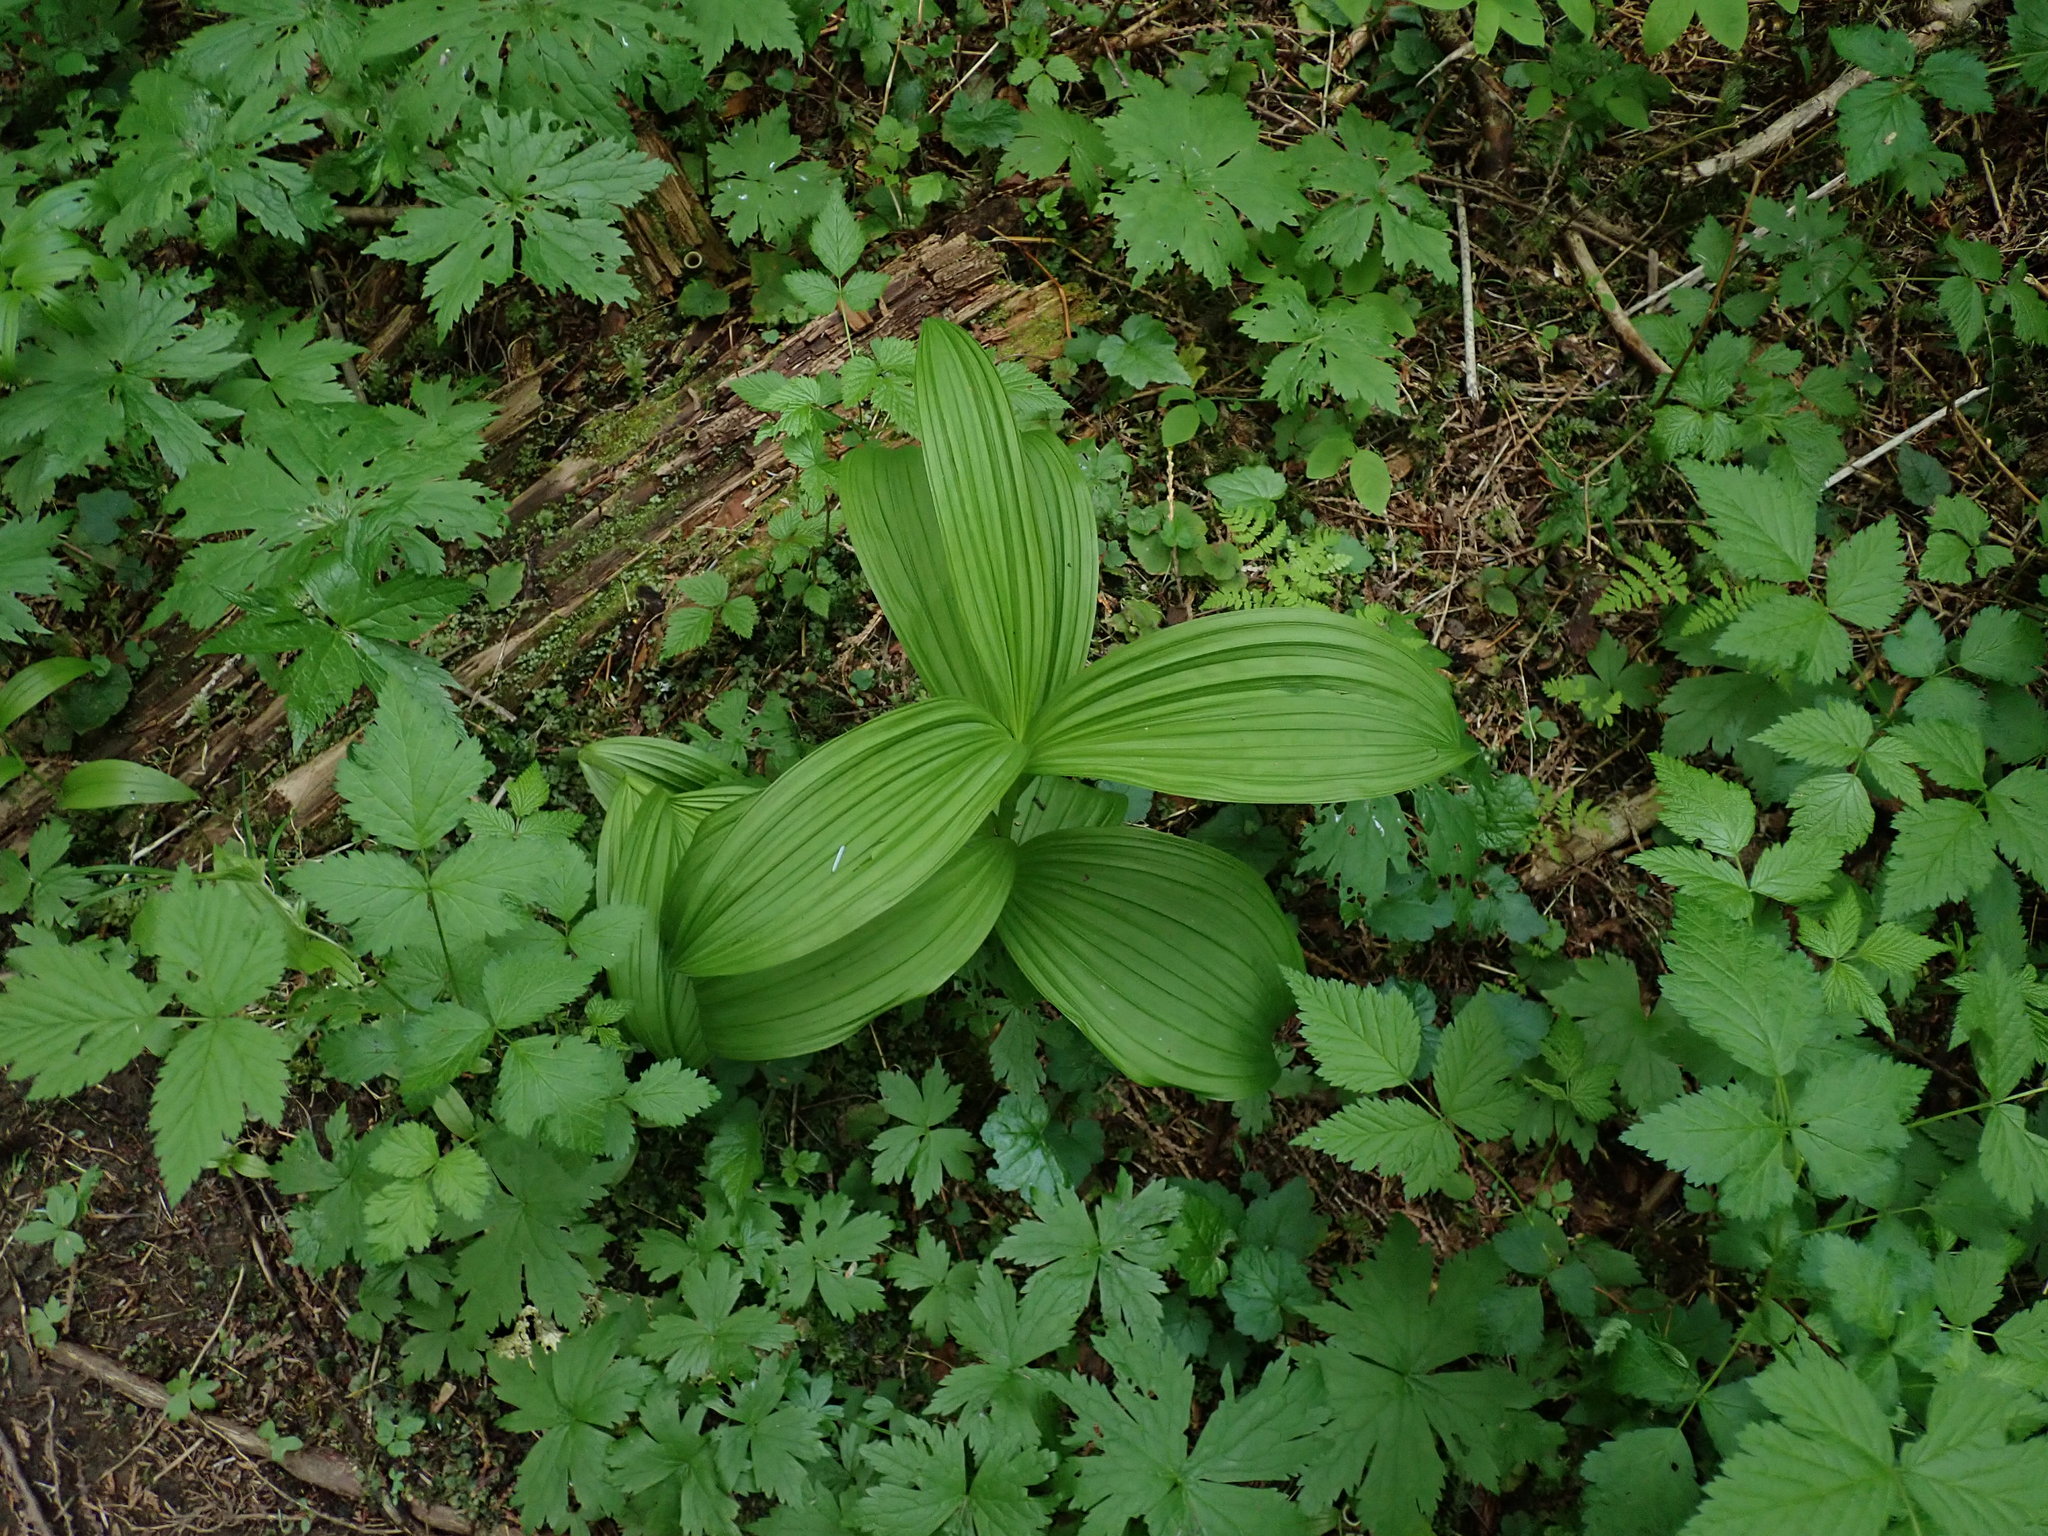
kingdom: Plantae
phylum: Tracheophyta
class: Liliopsida
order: Liliales
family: Melanthiaceae
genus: Veratrum
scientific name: Veratrum viride
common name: American false hellebore
